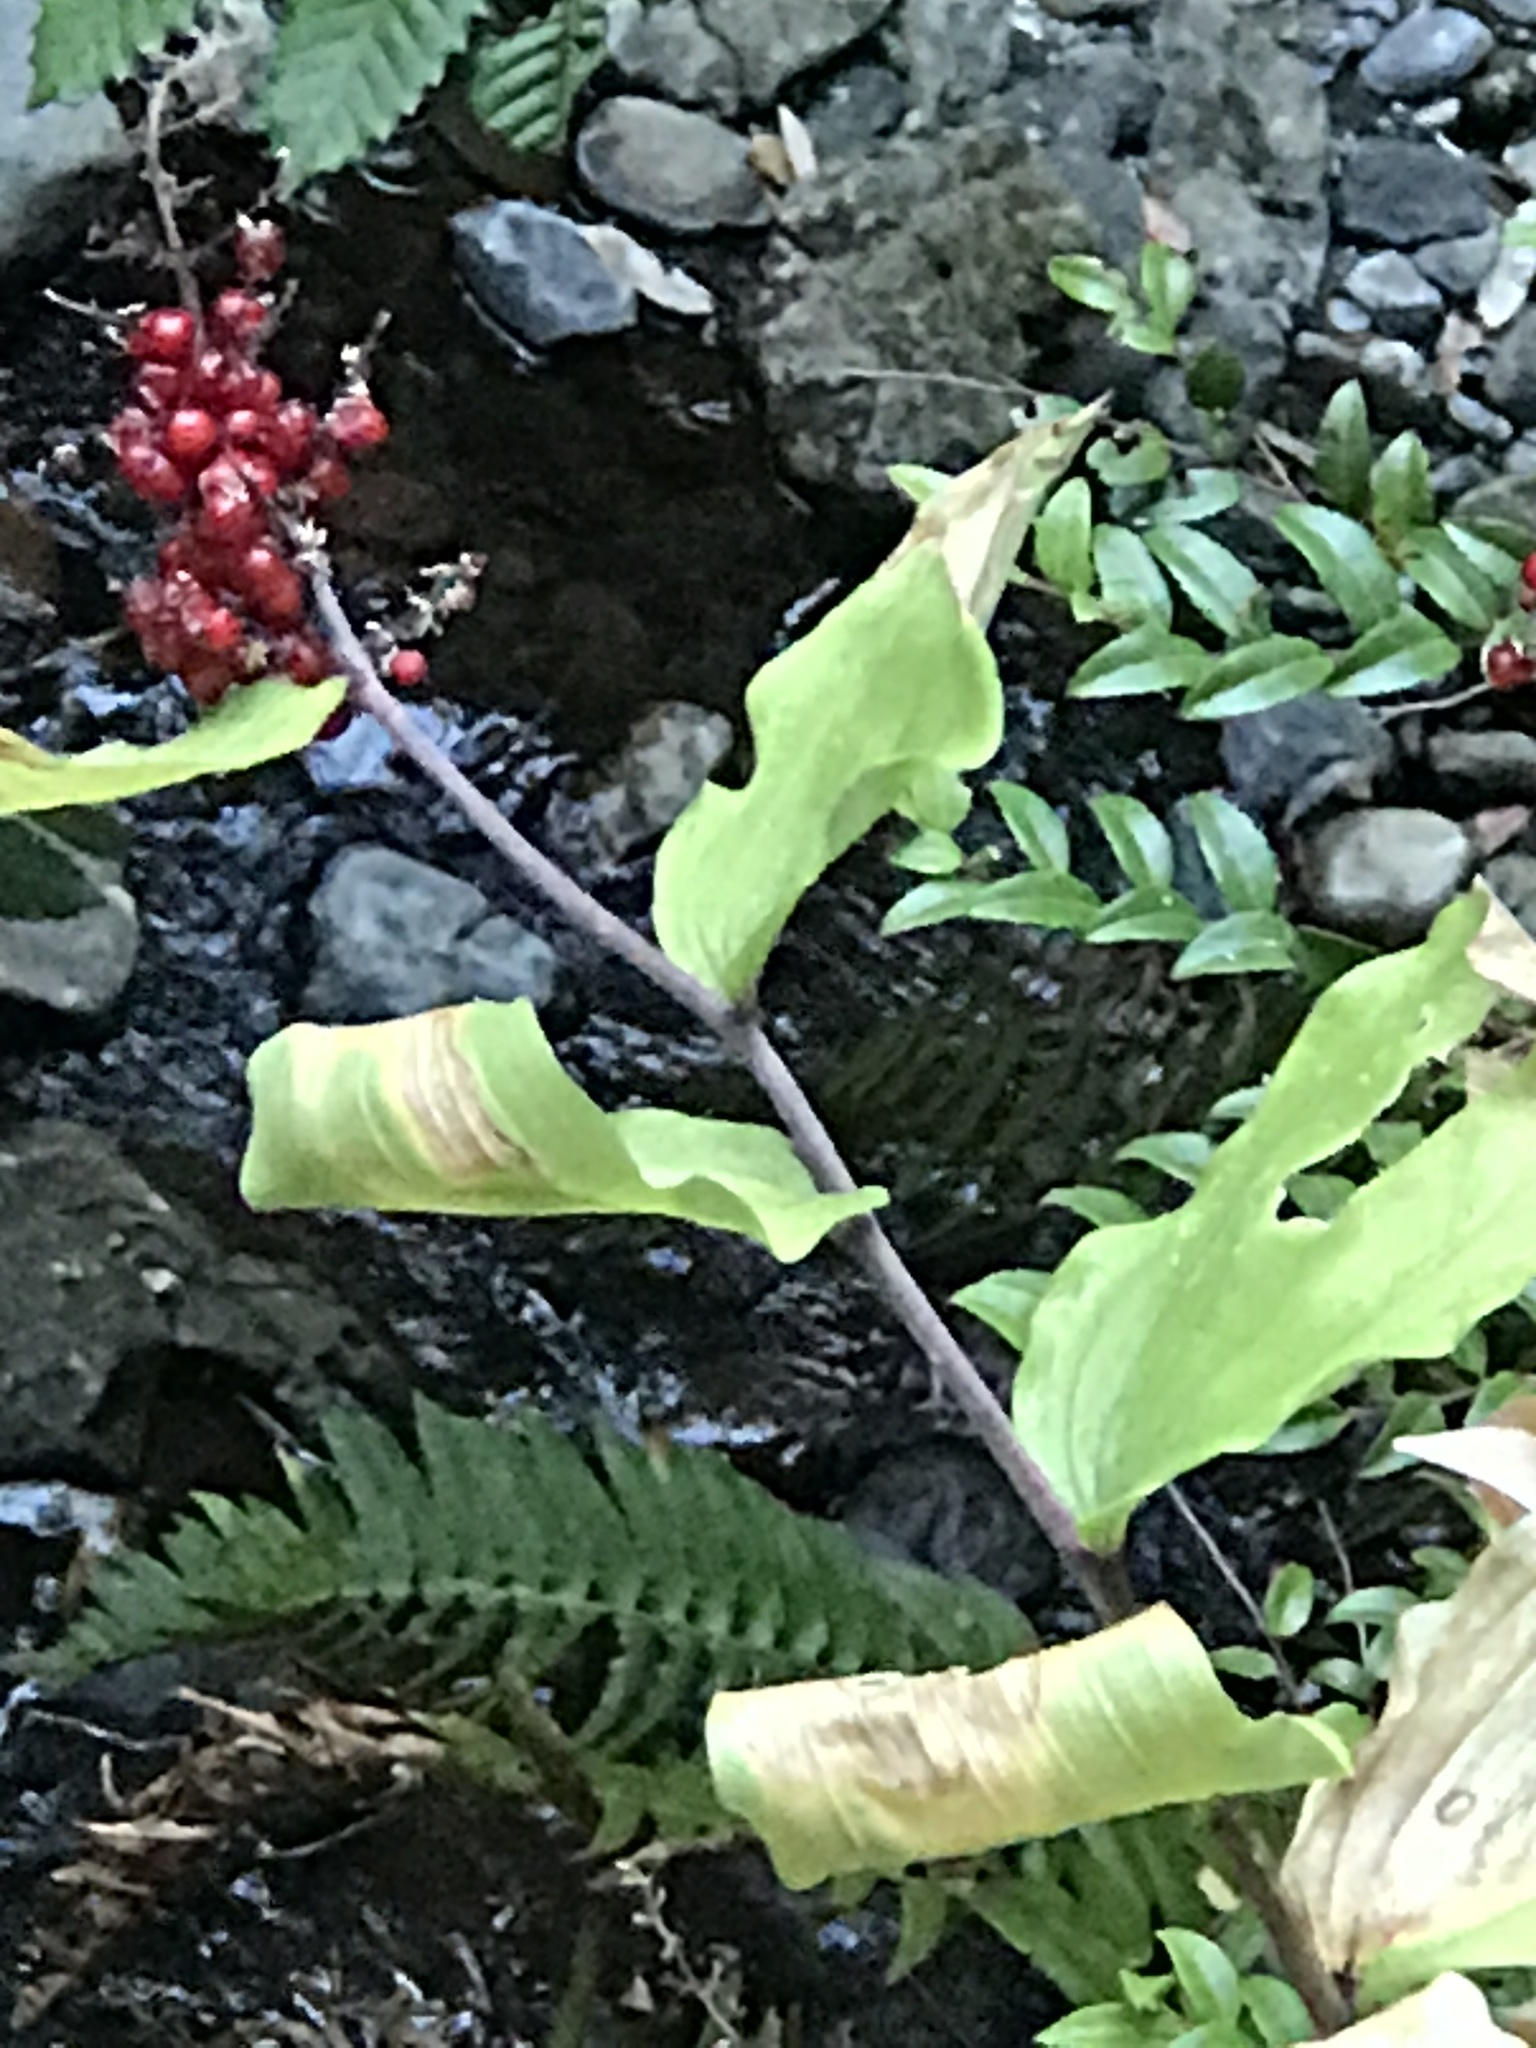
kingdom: Plantae
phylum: Tracheophyta
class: Liliopsida
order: Asparagales
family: Asparagaceae
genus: Maianthemum
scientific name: Maianthemum racemosum
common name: False spikenard
